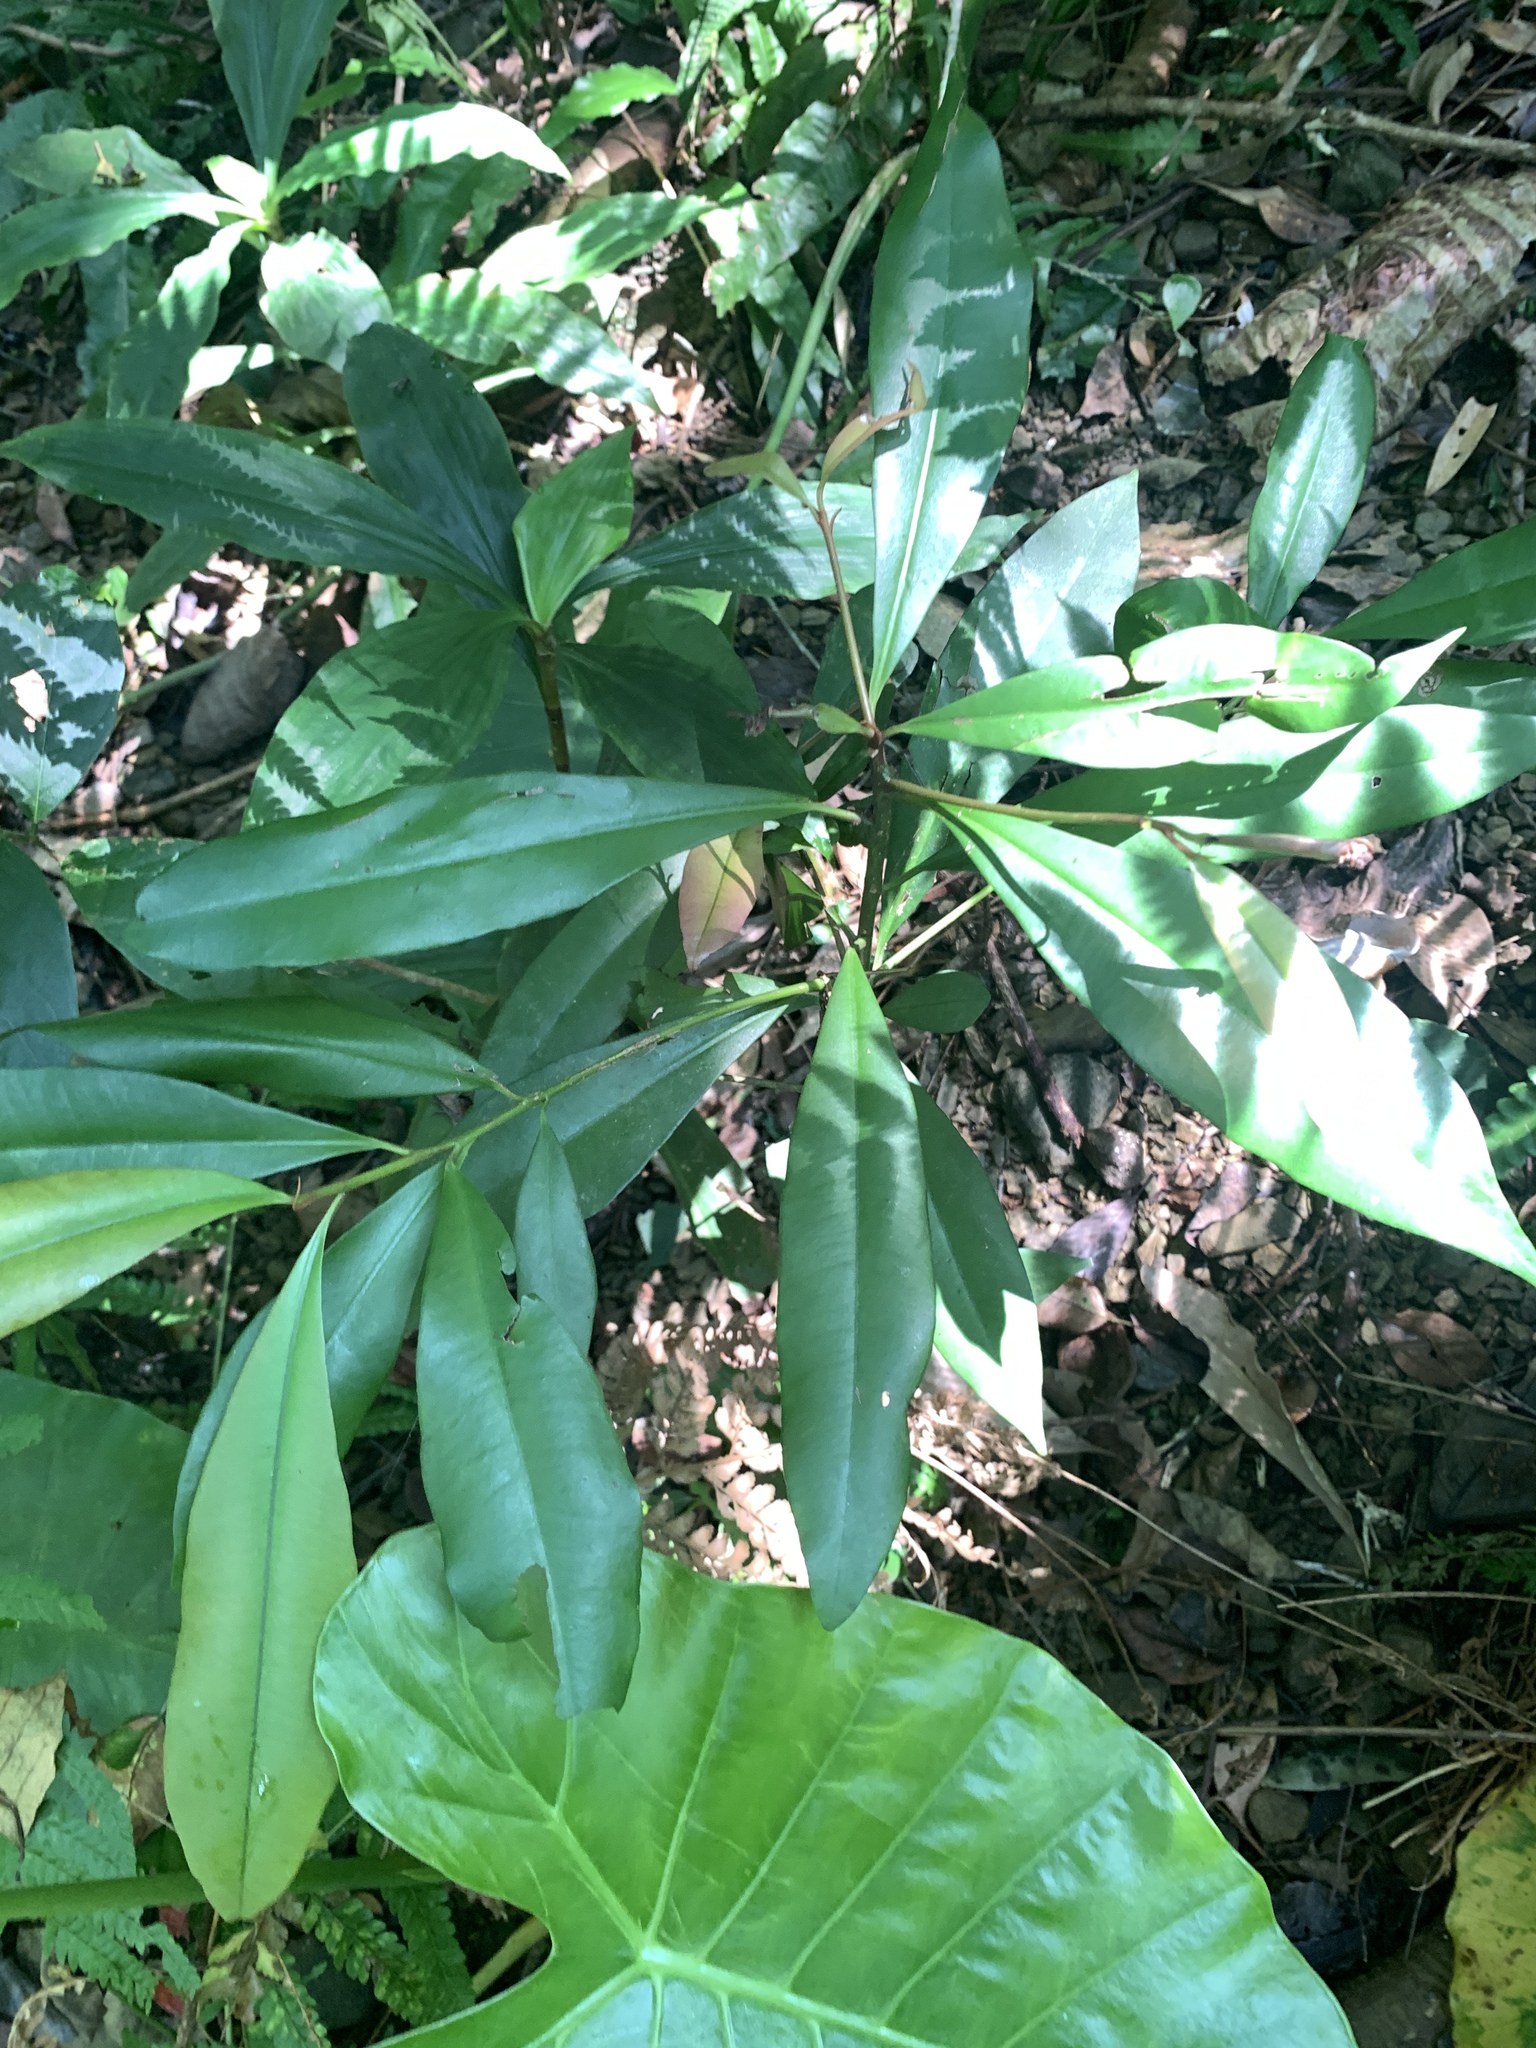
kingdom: Plantae
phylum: Tracheophyta
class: Magnoliopsida
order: Ericales
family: Primulaceae
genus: Ardisia
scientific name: Ardisia quinquegona
